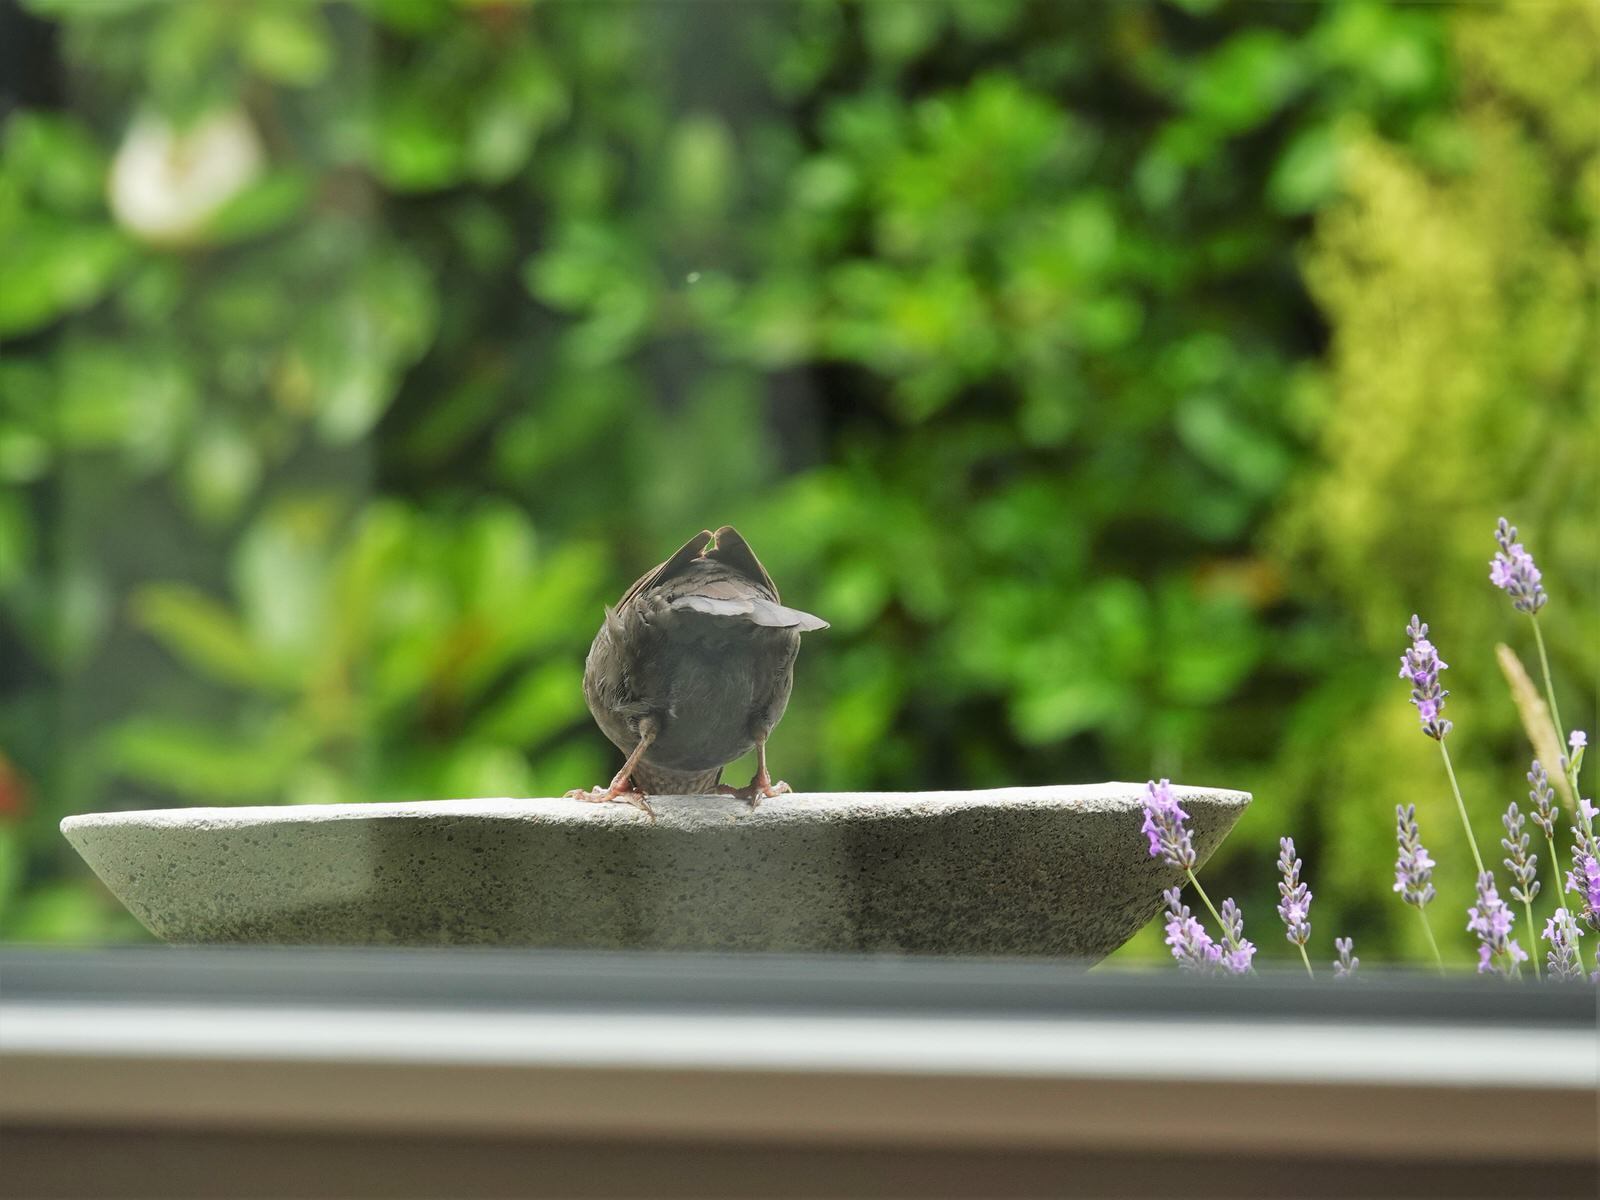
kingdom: Animalia
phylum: Chordata
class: Aves
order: Passeriformes
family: Turdidae
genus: Turdus
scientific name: Turdus merula
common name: Common blackbird
